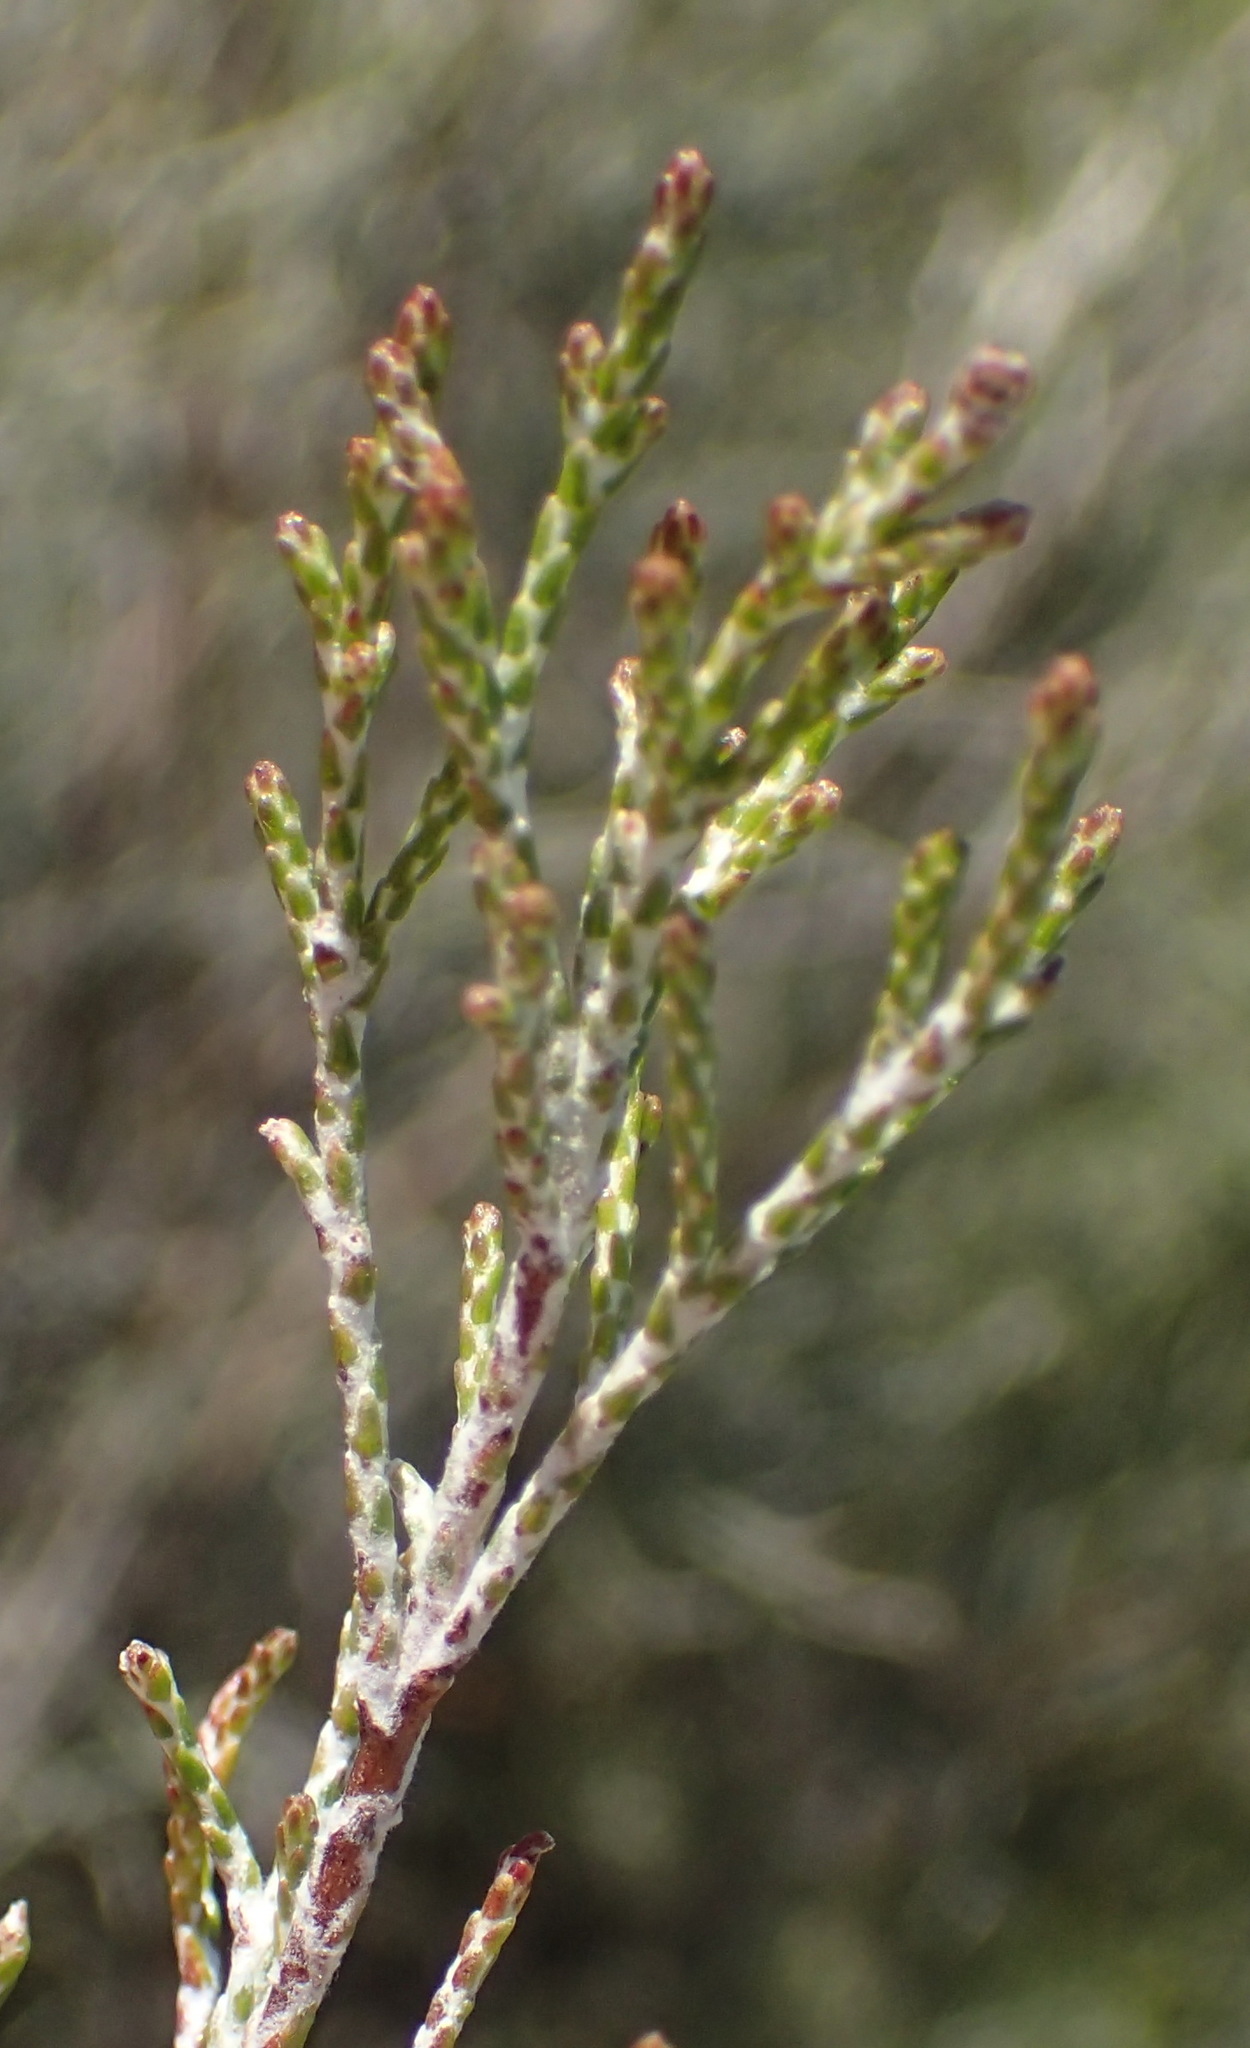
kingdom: Plantae
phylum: Tracheophyta
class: Magnoliopsida
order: Asterales
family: Asteraceae
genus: Dicerothamnus
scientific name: Dicerothamnus rhinocerotis
